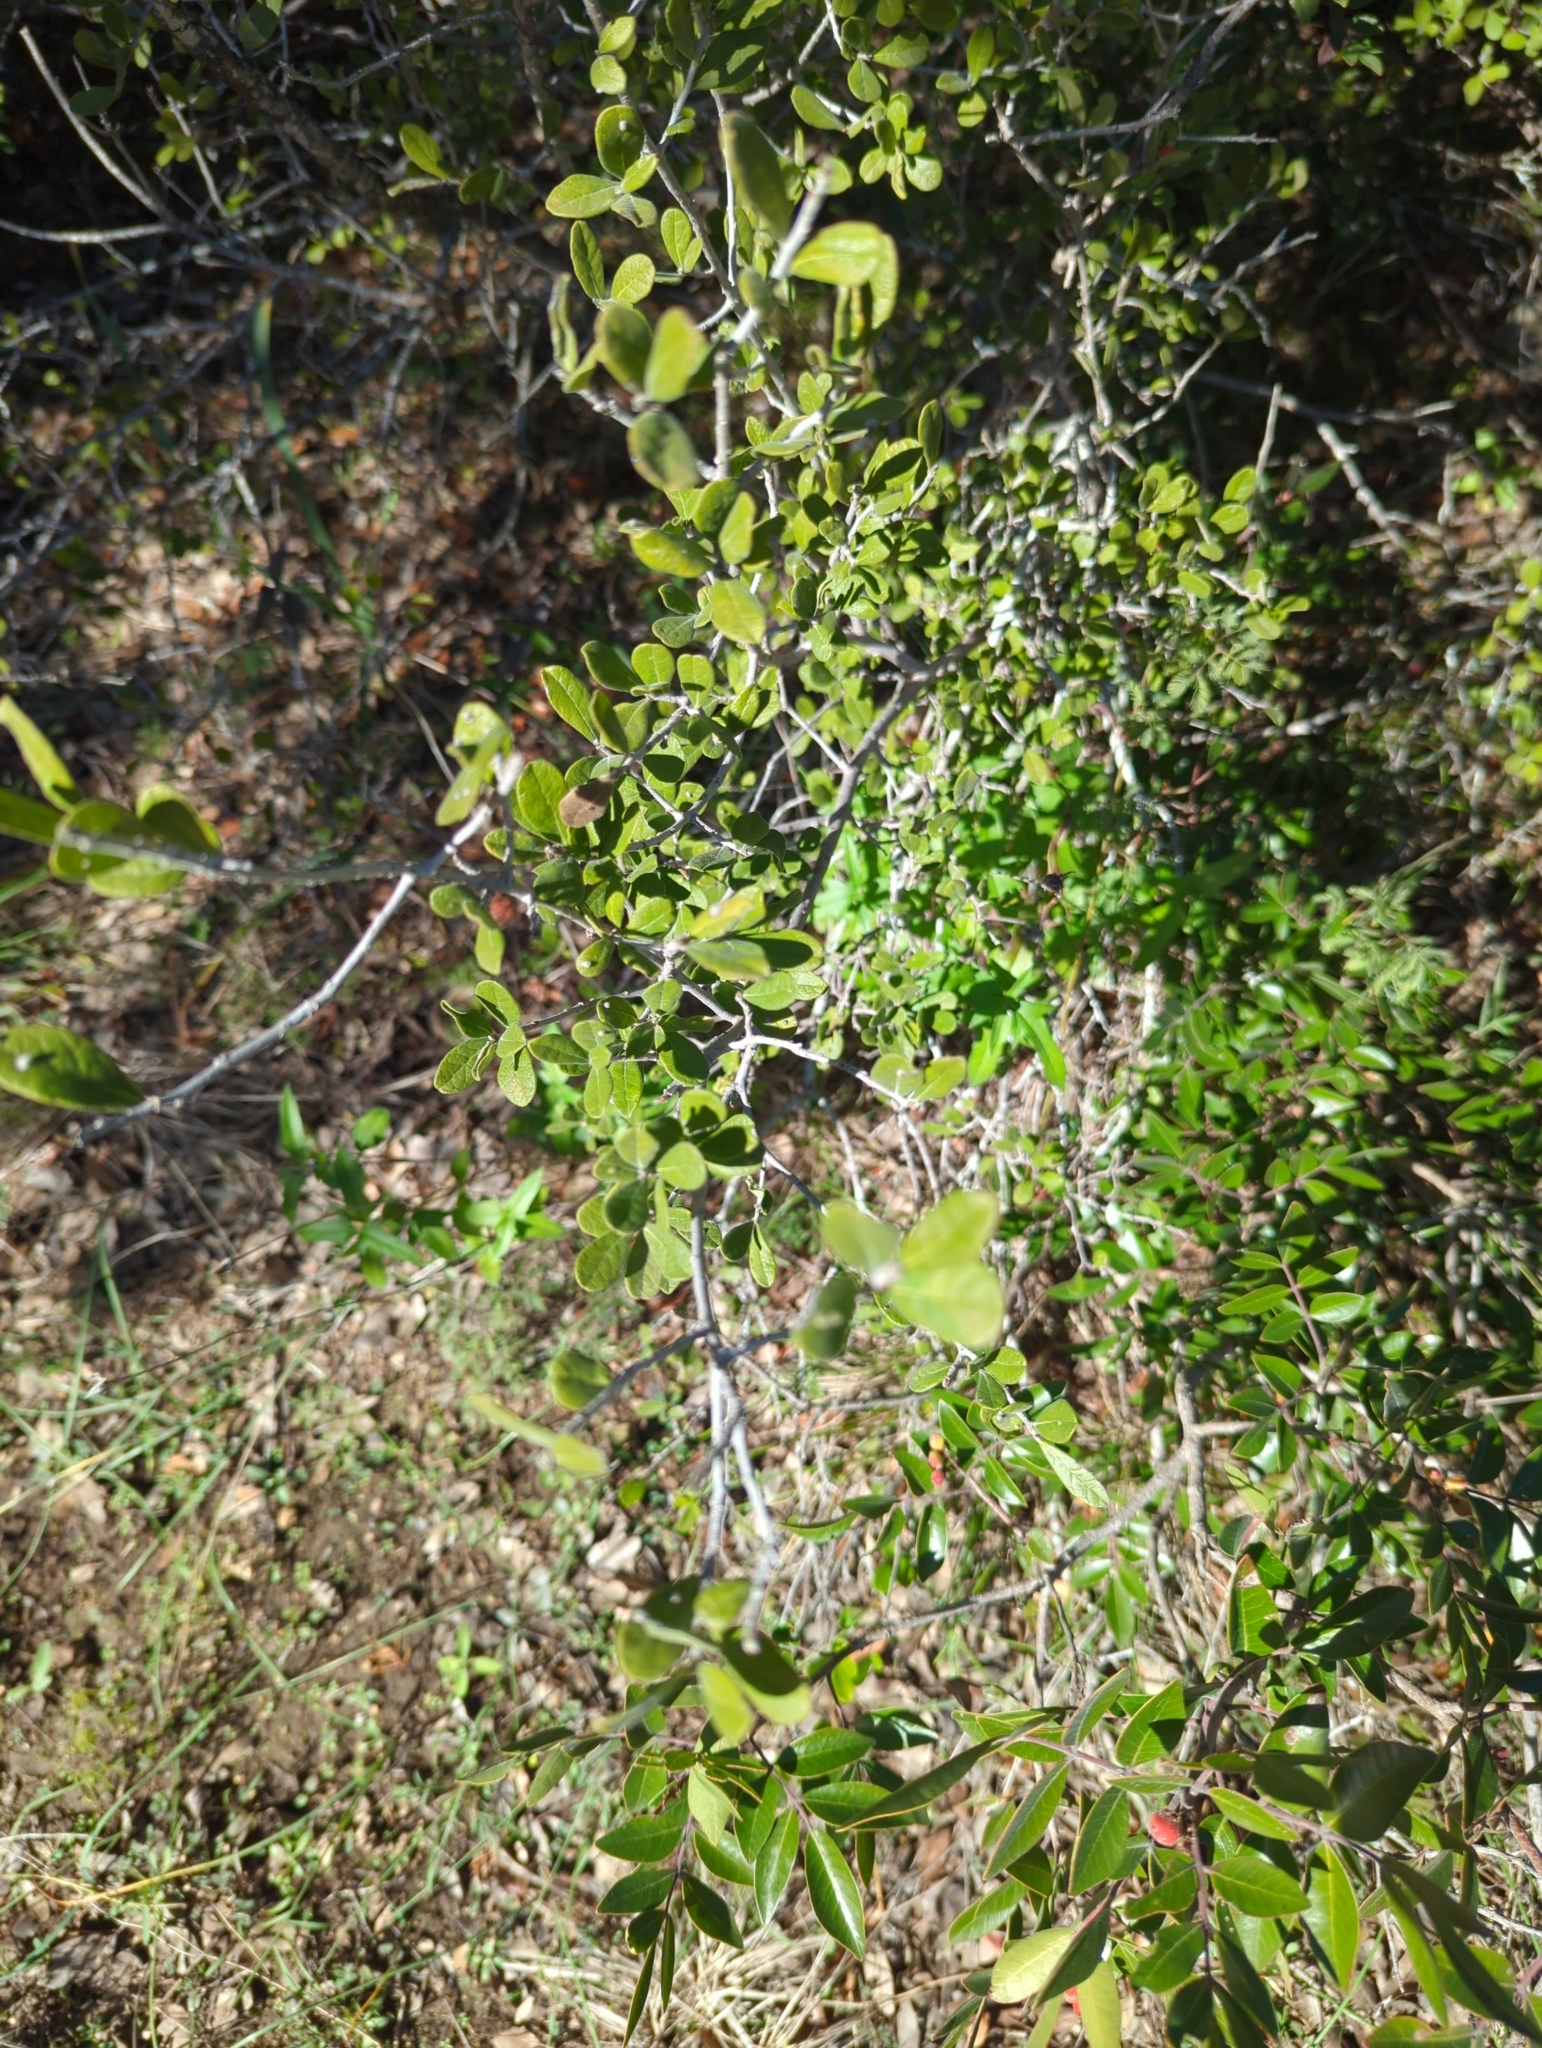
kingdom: Plantae
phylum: Tracheophyta
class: Magnoliopsida
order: Ericales
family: Ebenaceae
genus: Diospyros
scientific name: Diospyros texana
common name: Texas persimmon
